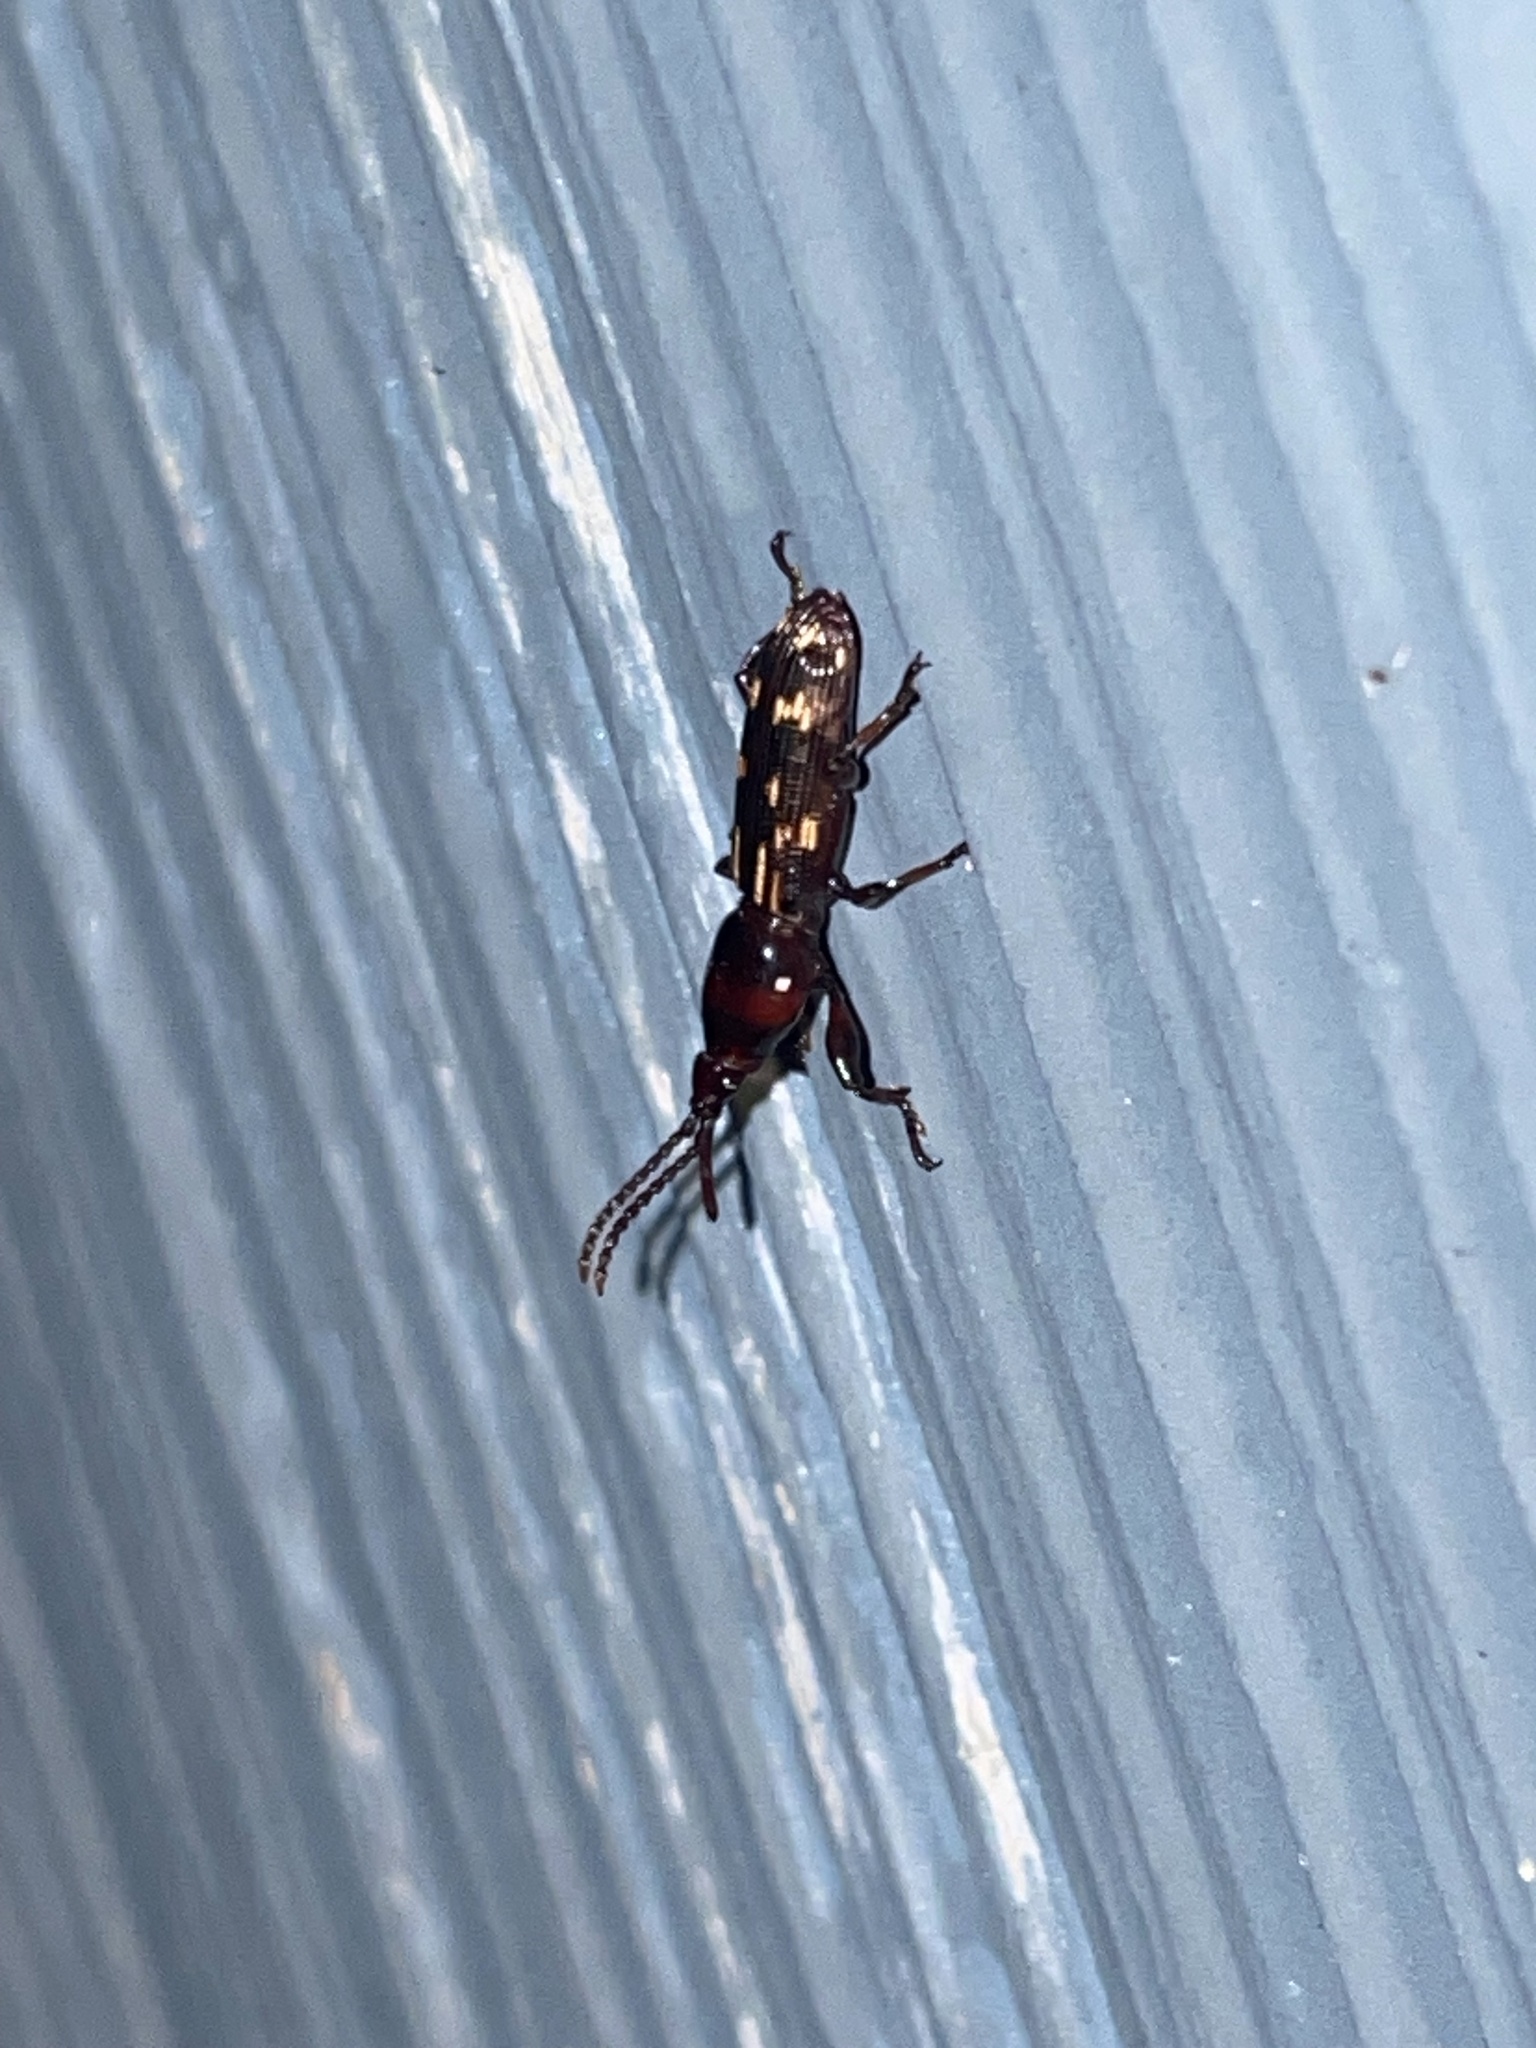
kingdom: Animalia
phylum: Arthropoda
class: Insecta
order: Coleoptera
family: Brentidae
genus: Arrenodes
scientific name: Arrenodes minutus
